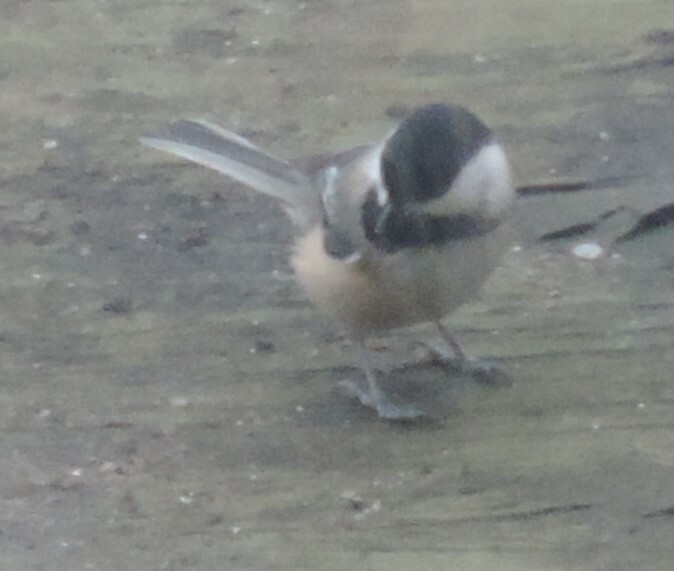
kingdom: Animalia
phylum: Chordata
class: Aves
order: Passeriformes
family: Paridae
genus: Poecile
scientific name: Poecile atricapillus
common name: Black-capped chickadee
